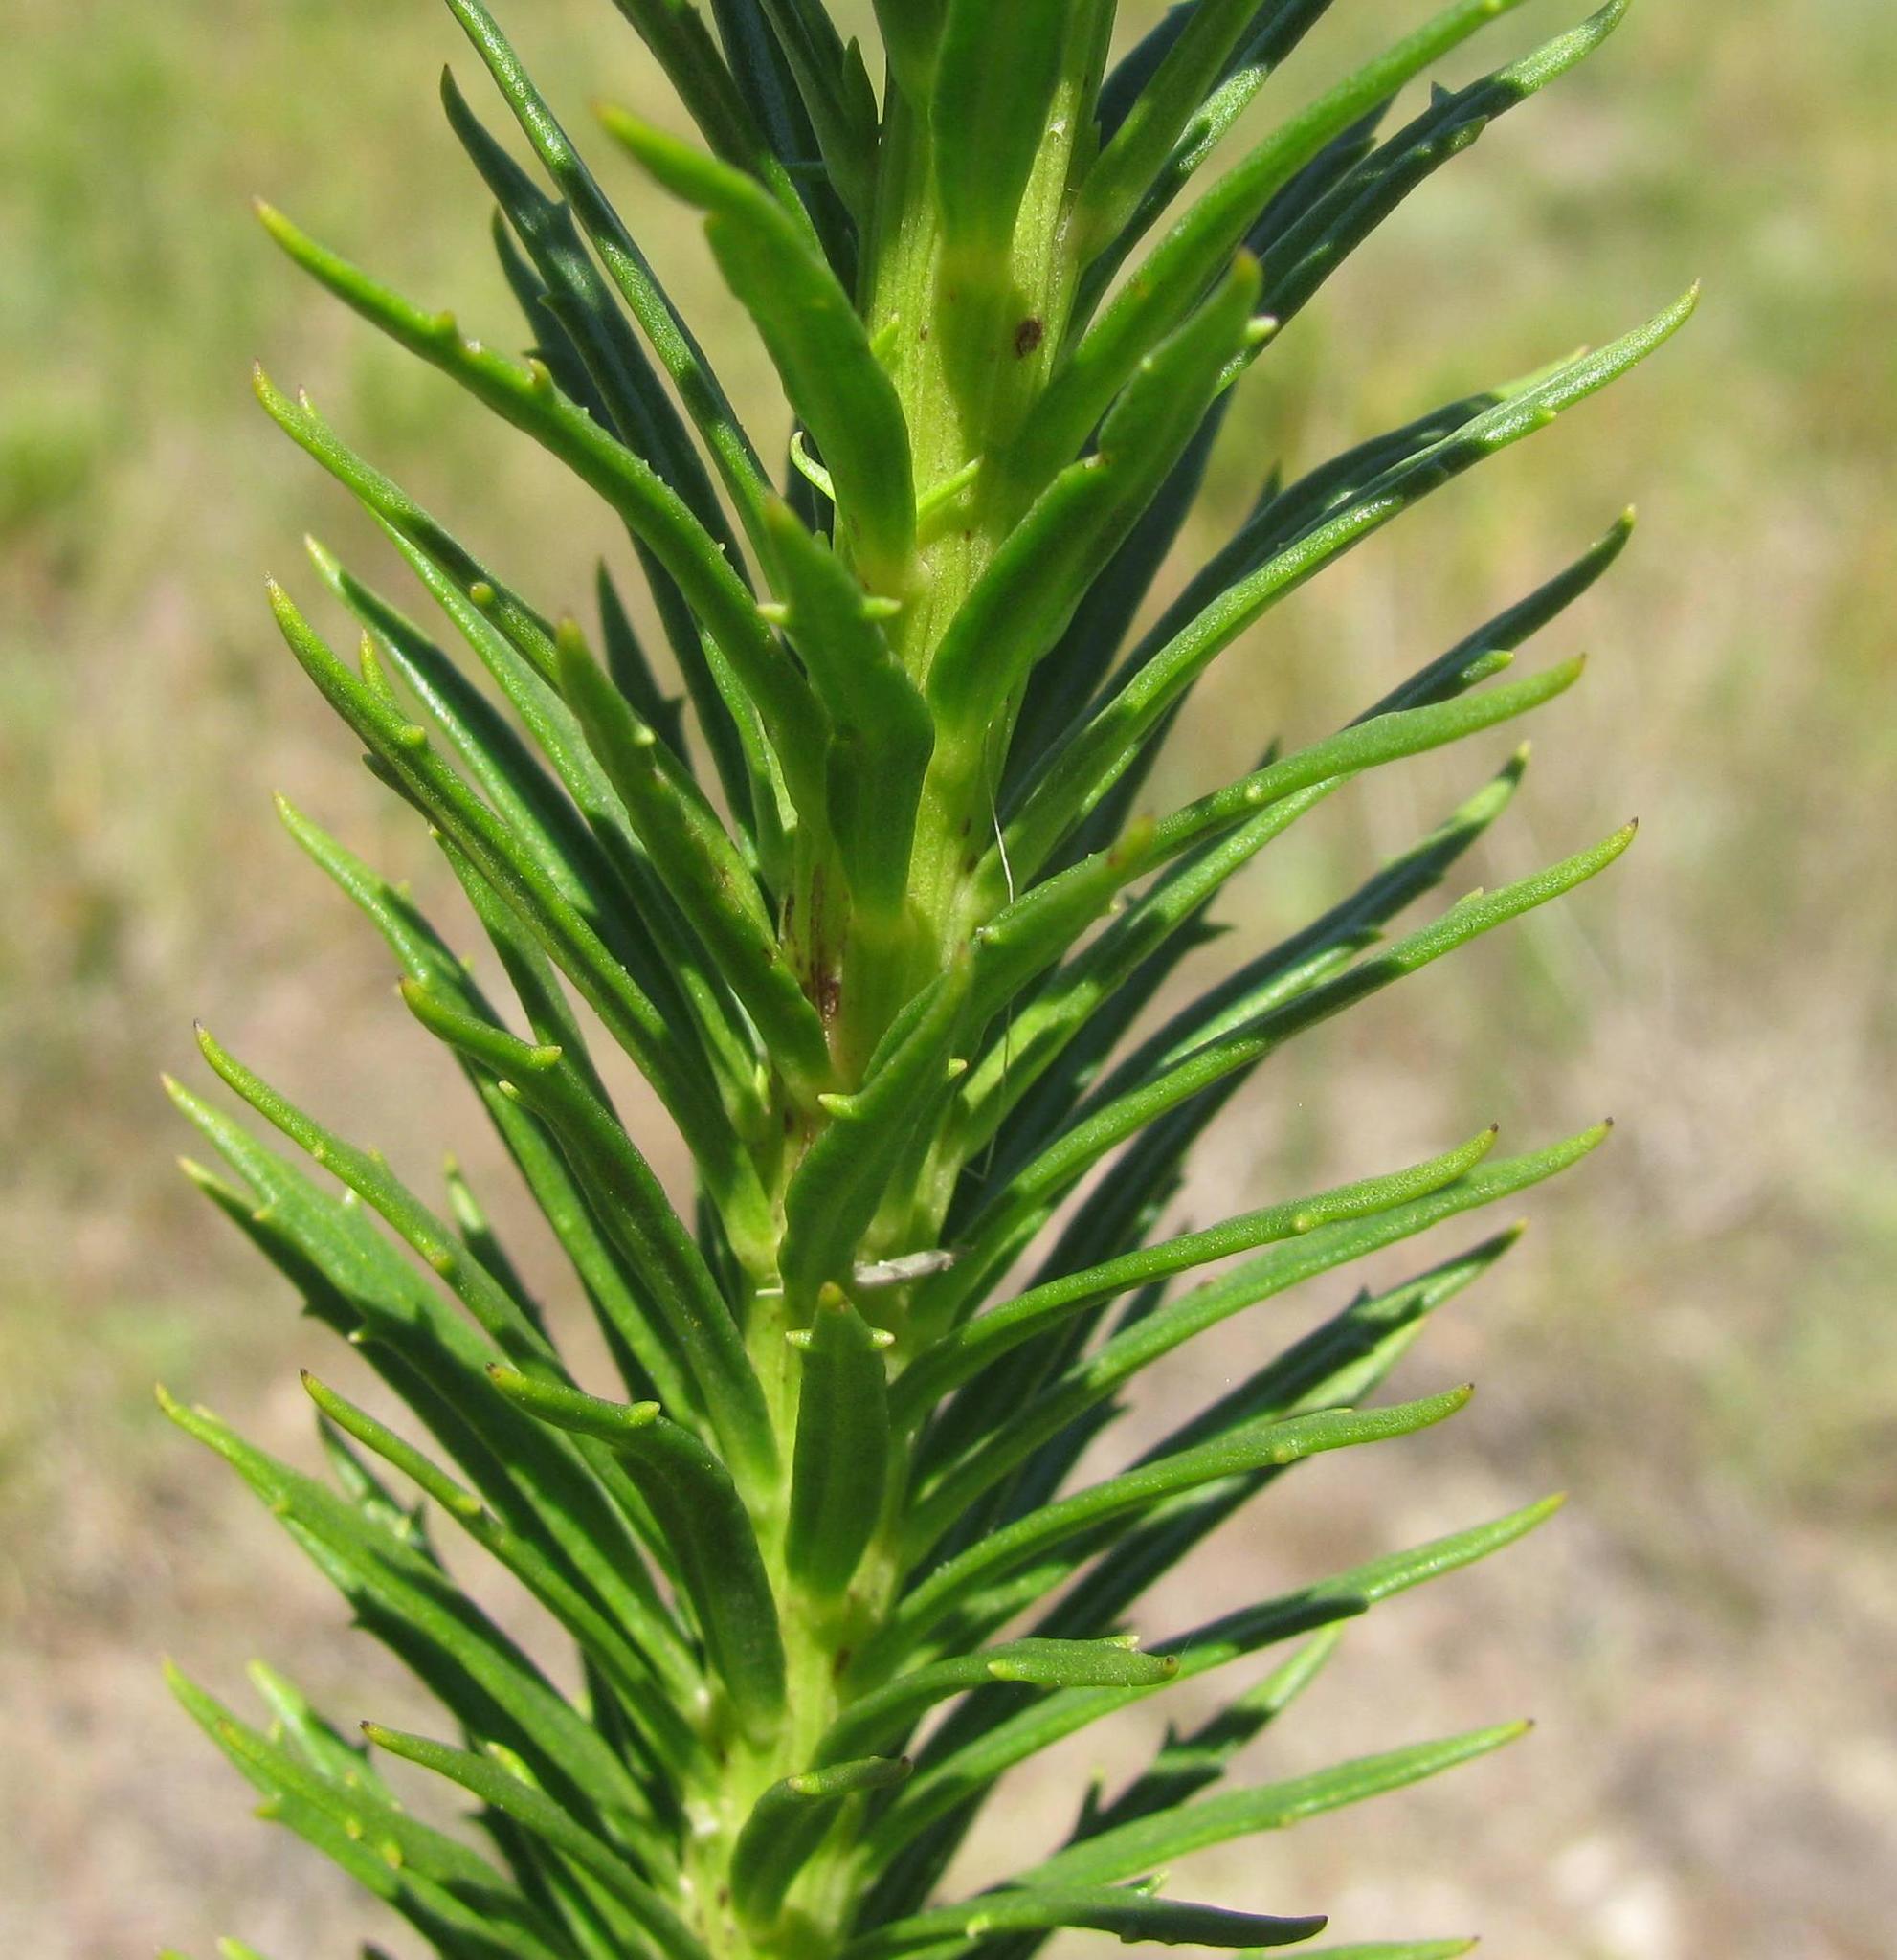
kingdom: Plantae
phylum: Tracheophyta
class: Magnoliopsida
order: Lamiales
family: Scrophulariaceae
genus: Pseudoselago
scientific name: Pseudoselago densifolia
